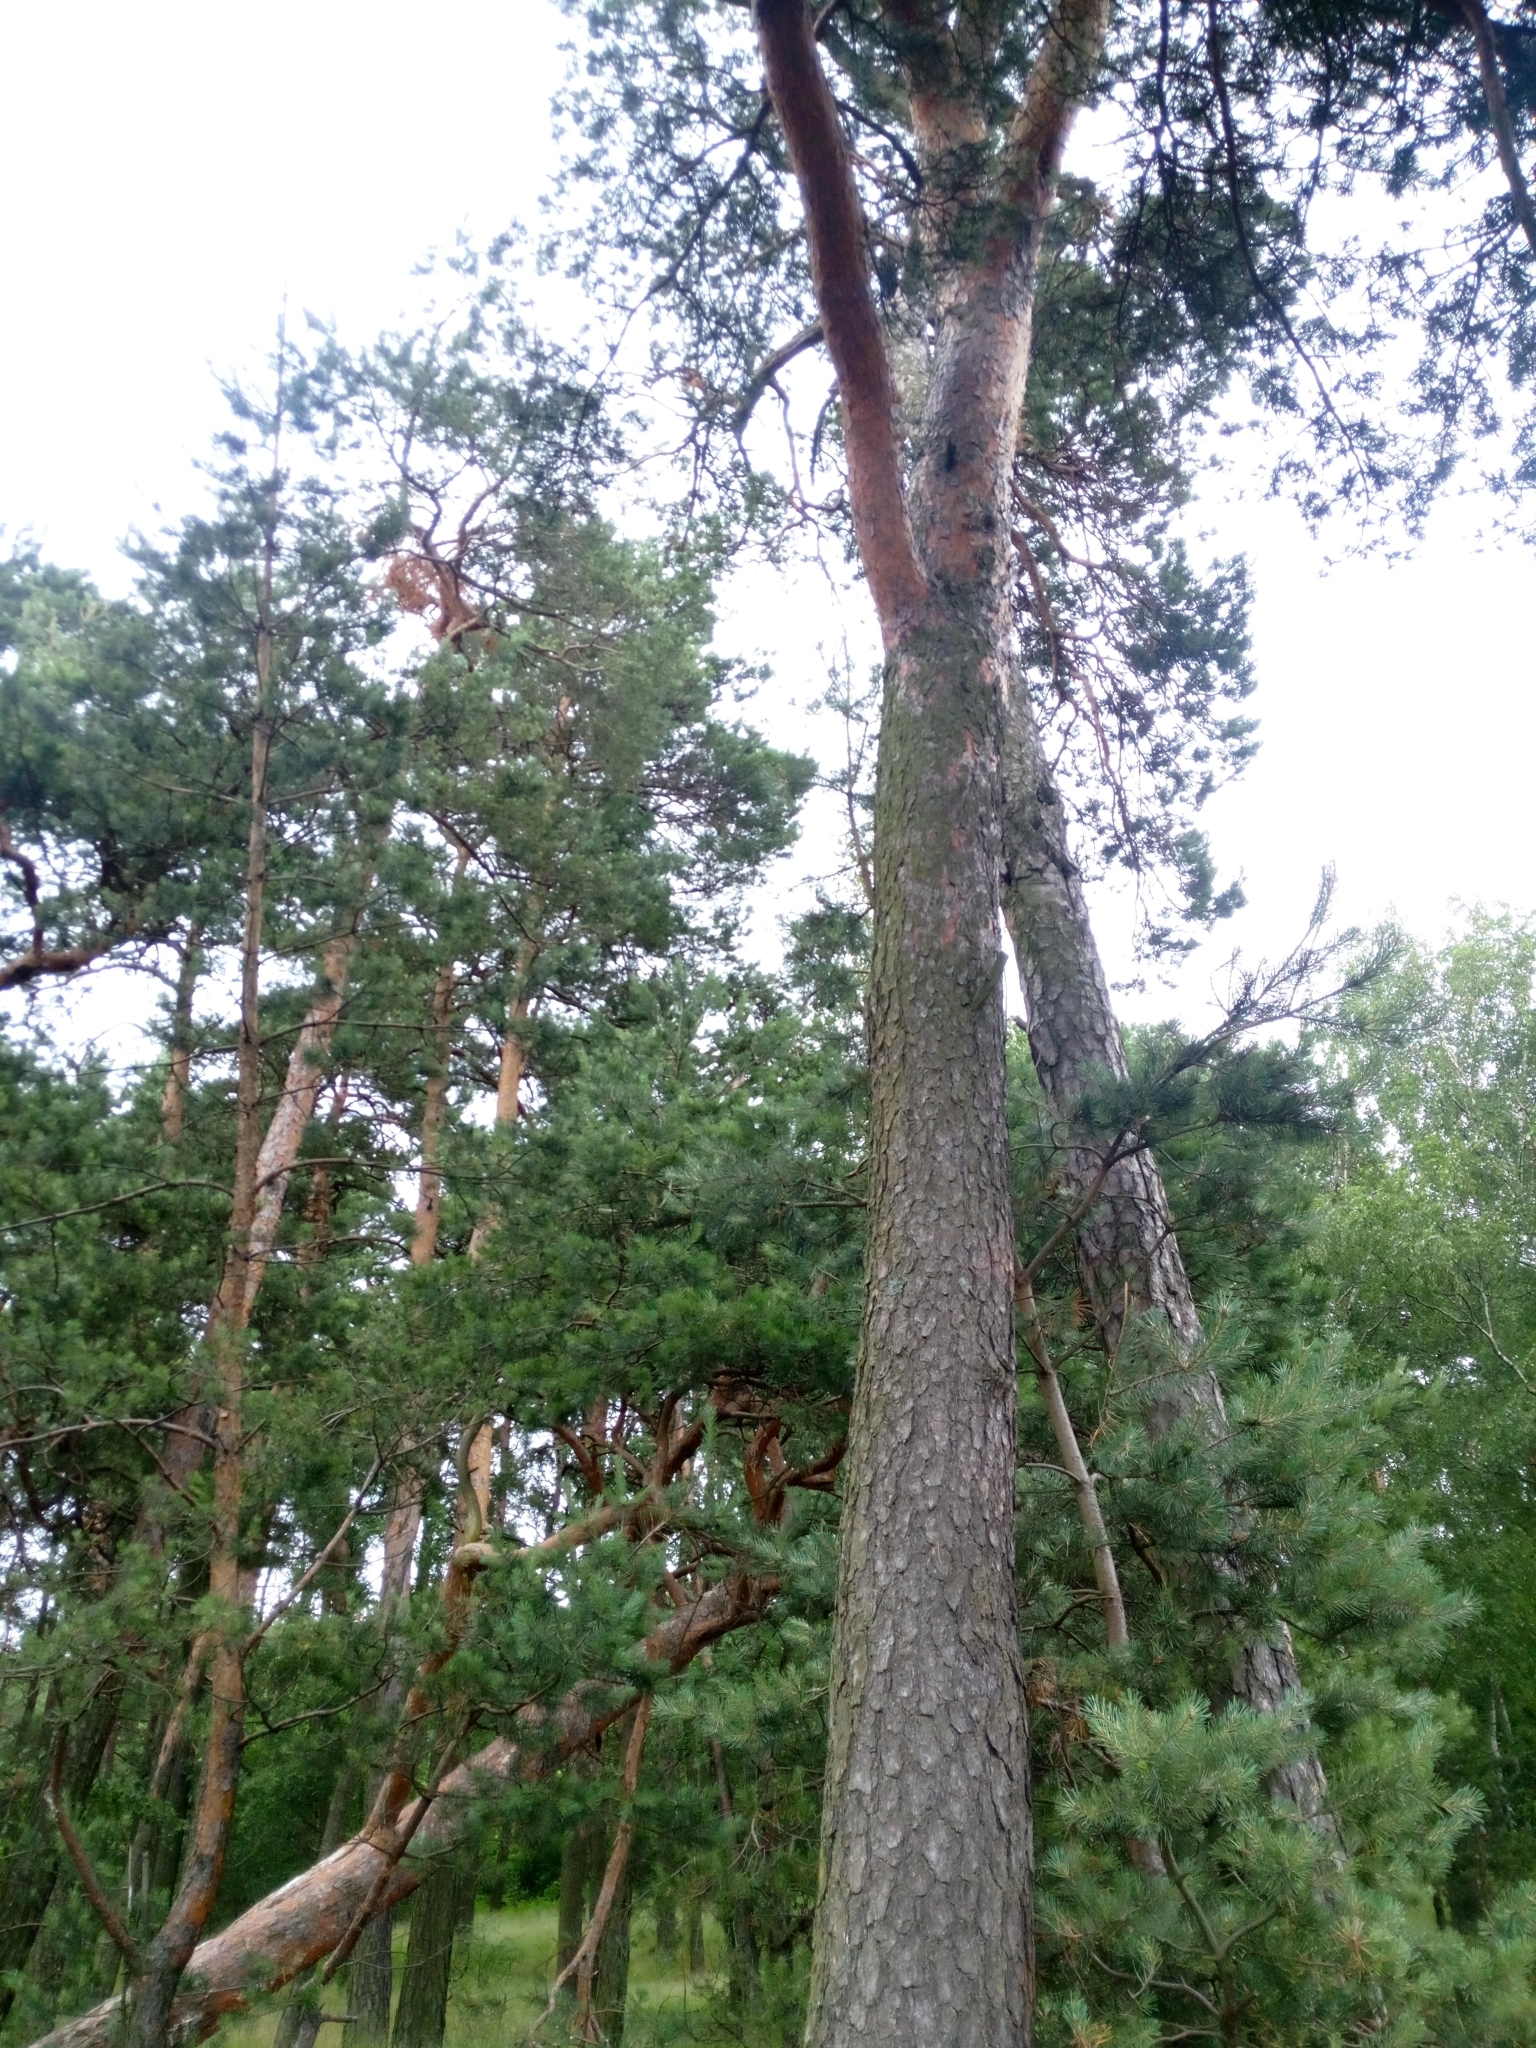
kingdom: Plantae
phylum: Tracheophyta
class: Pinopsida
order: Pinales
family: Pinaceae
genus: Pinus
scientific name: Pinus sylvestris
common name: Scots pine
